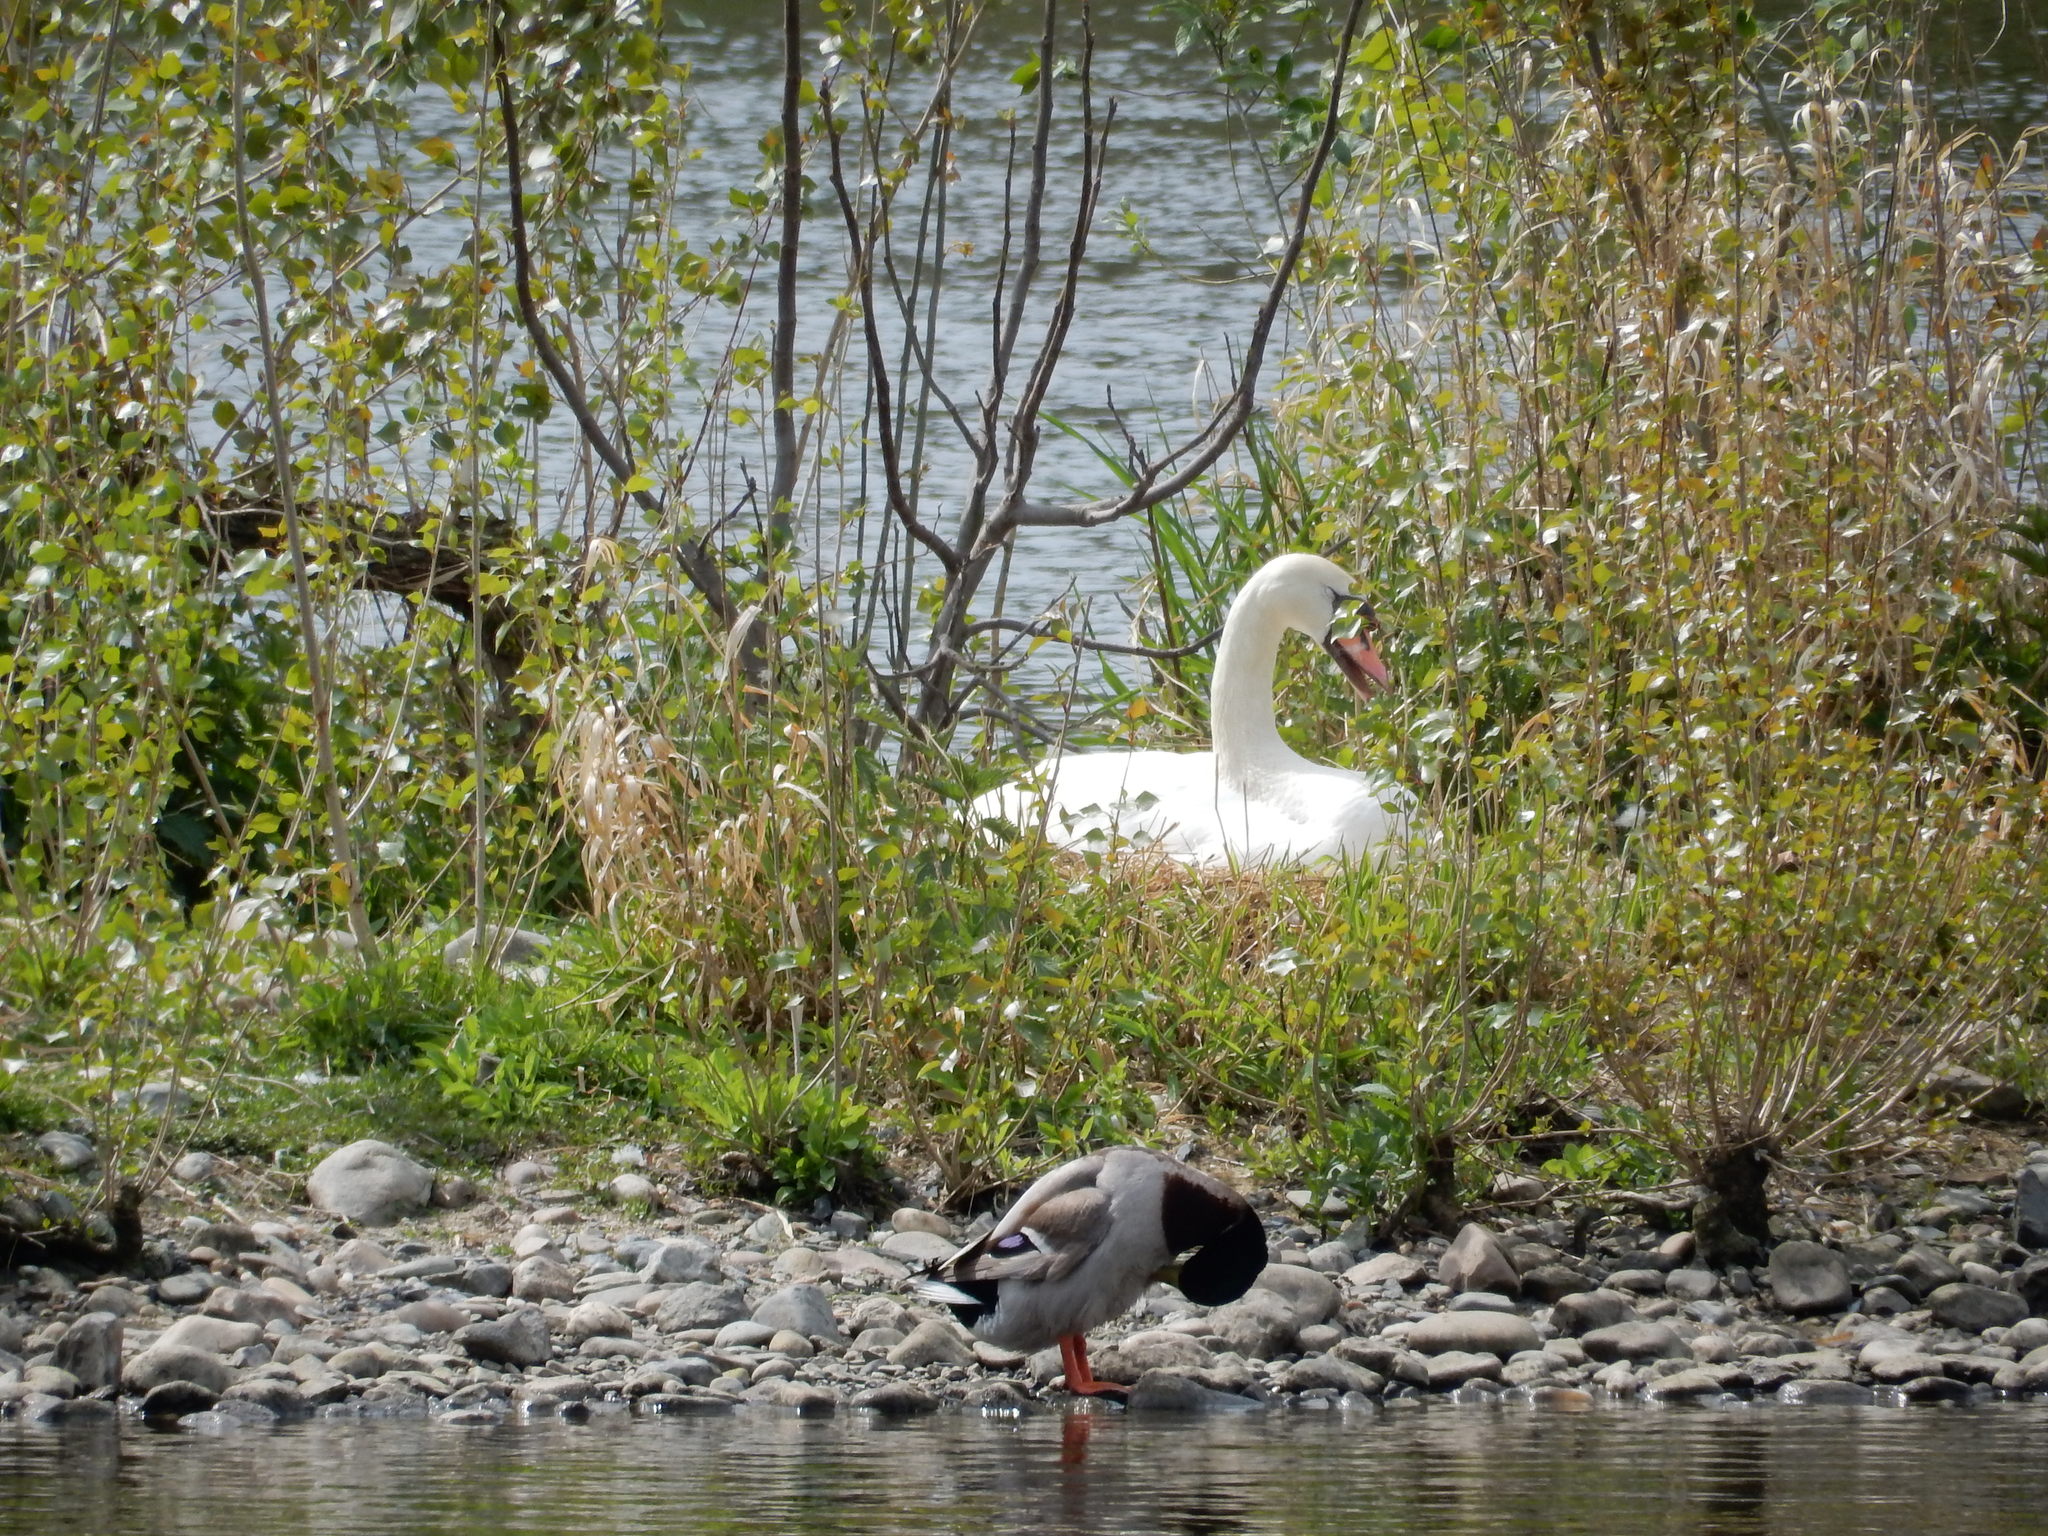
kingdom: Animalia
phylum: Chordata
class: Aves
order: Anseriformes
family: Anatidae
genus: Cygnus
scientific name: Cygnus olor
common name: Mute swan
